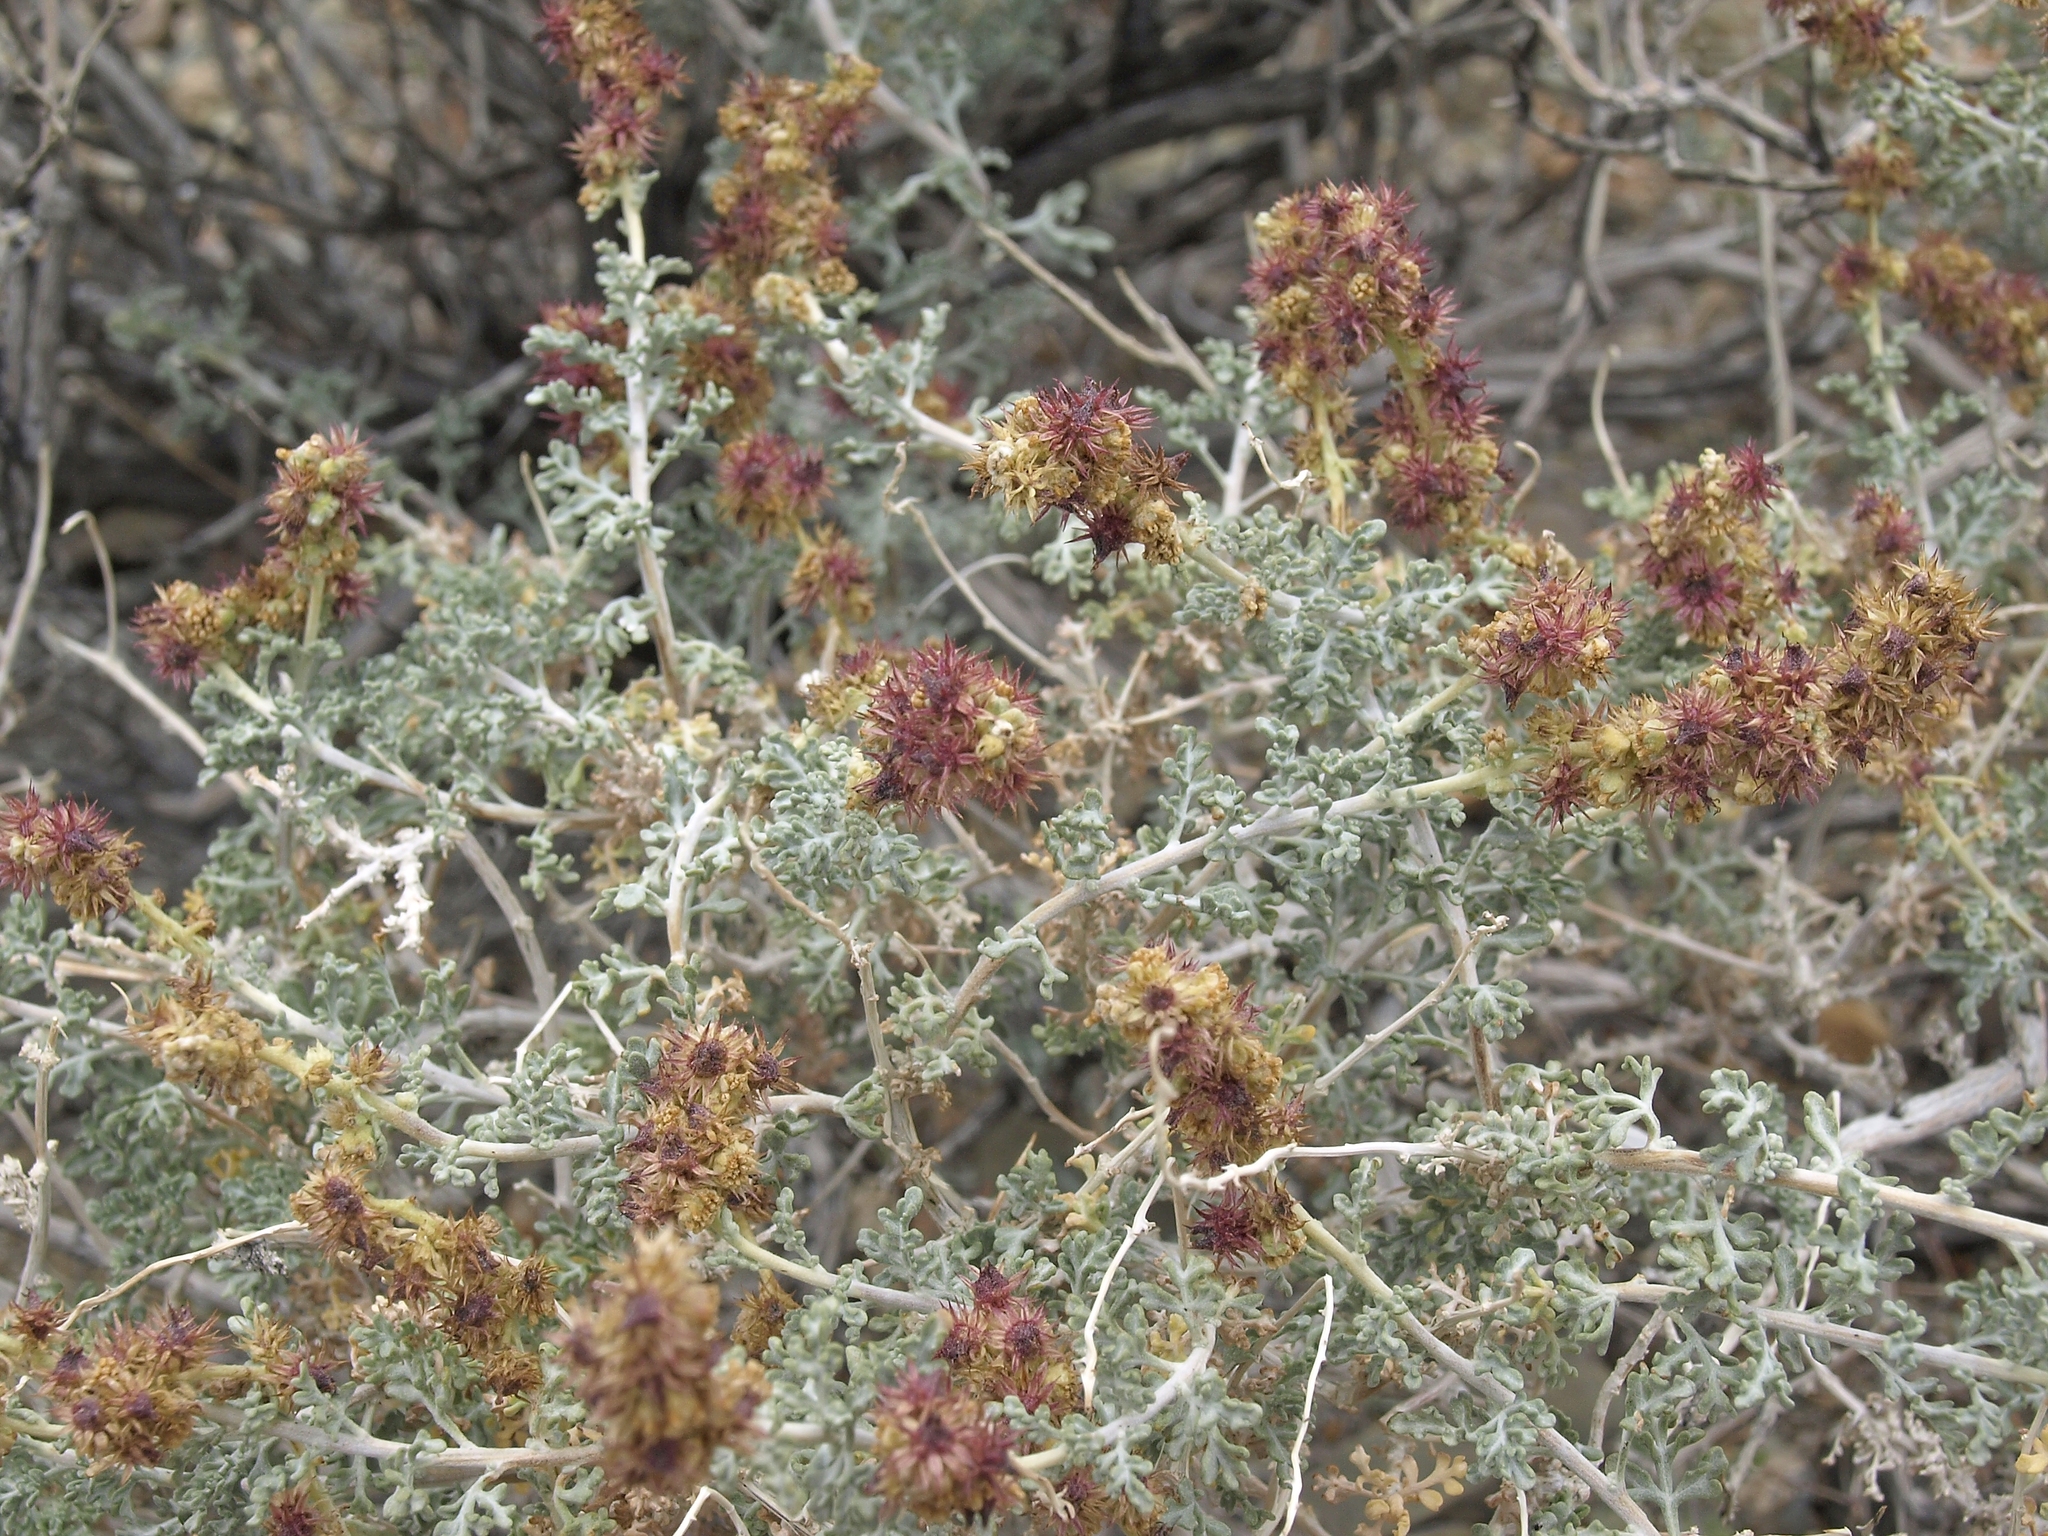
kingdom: Plantae
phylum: Tracheophyta
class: Magnoliopsida
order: Asterales
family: Asteraceae
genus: Ambrosia
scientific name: Ambrosia dumosa
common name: Bur-sage
